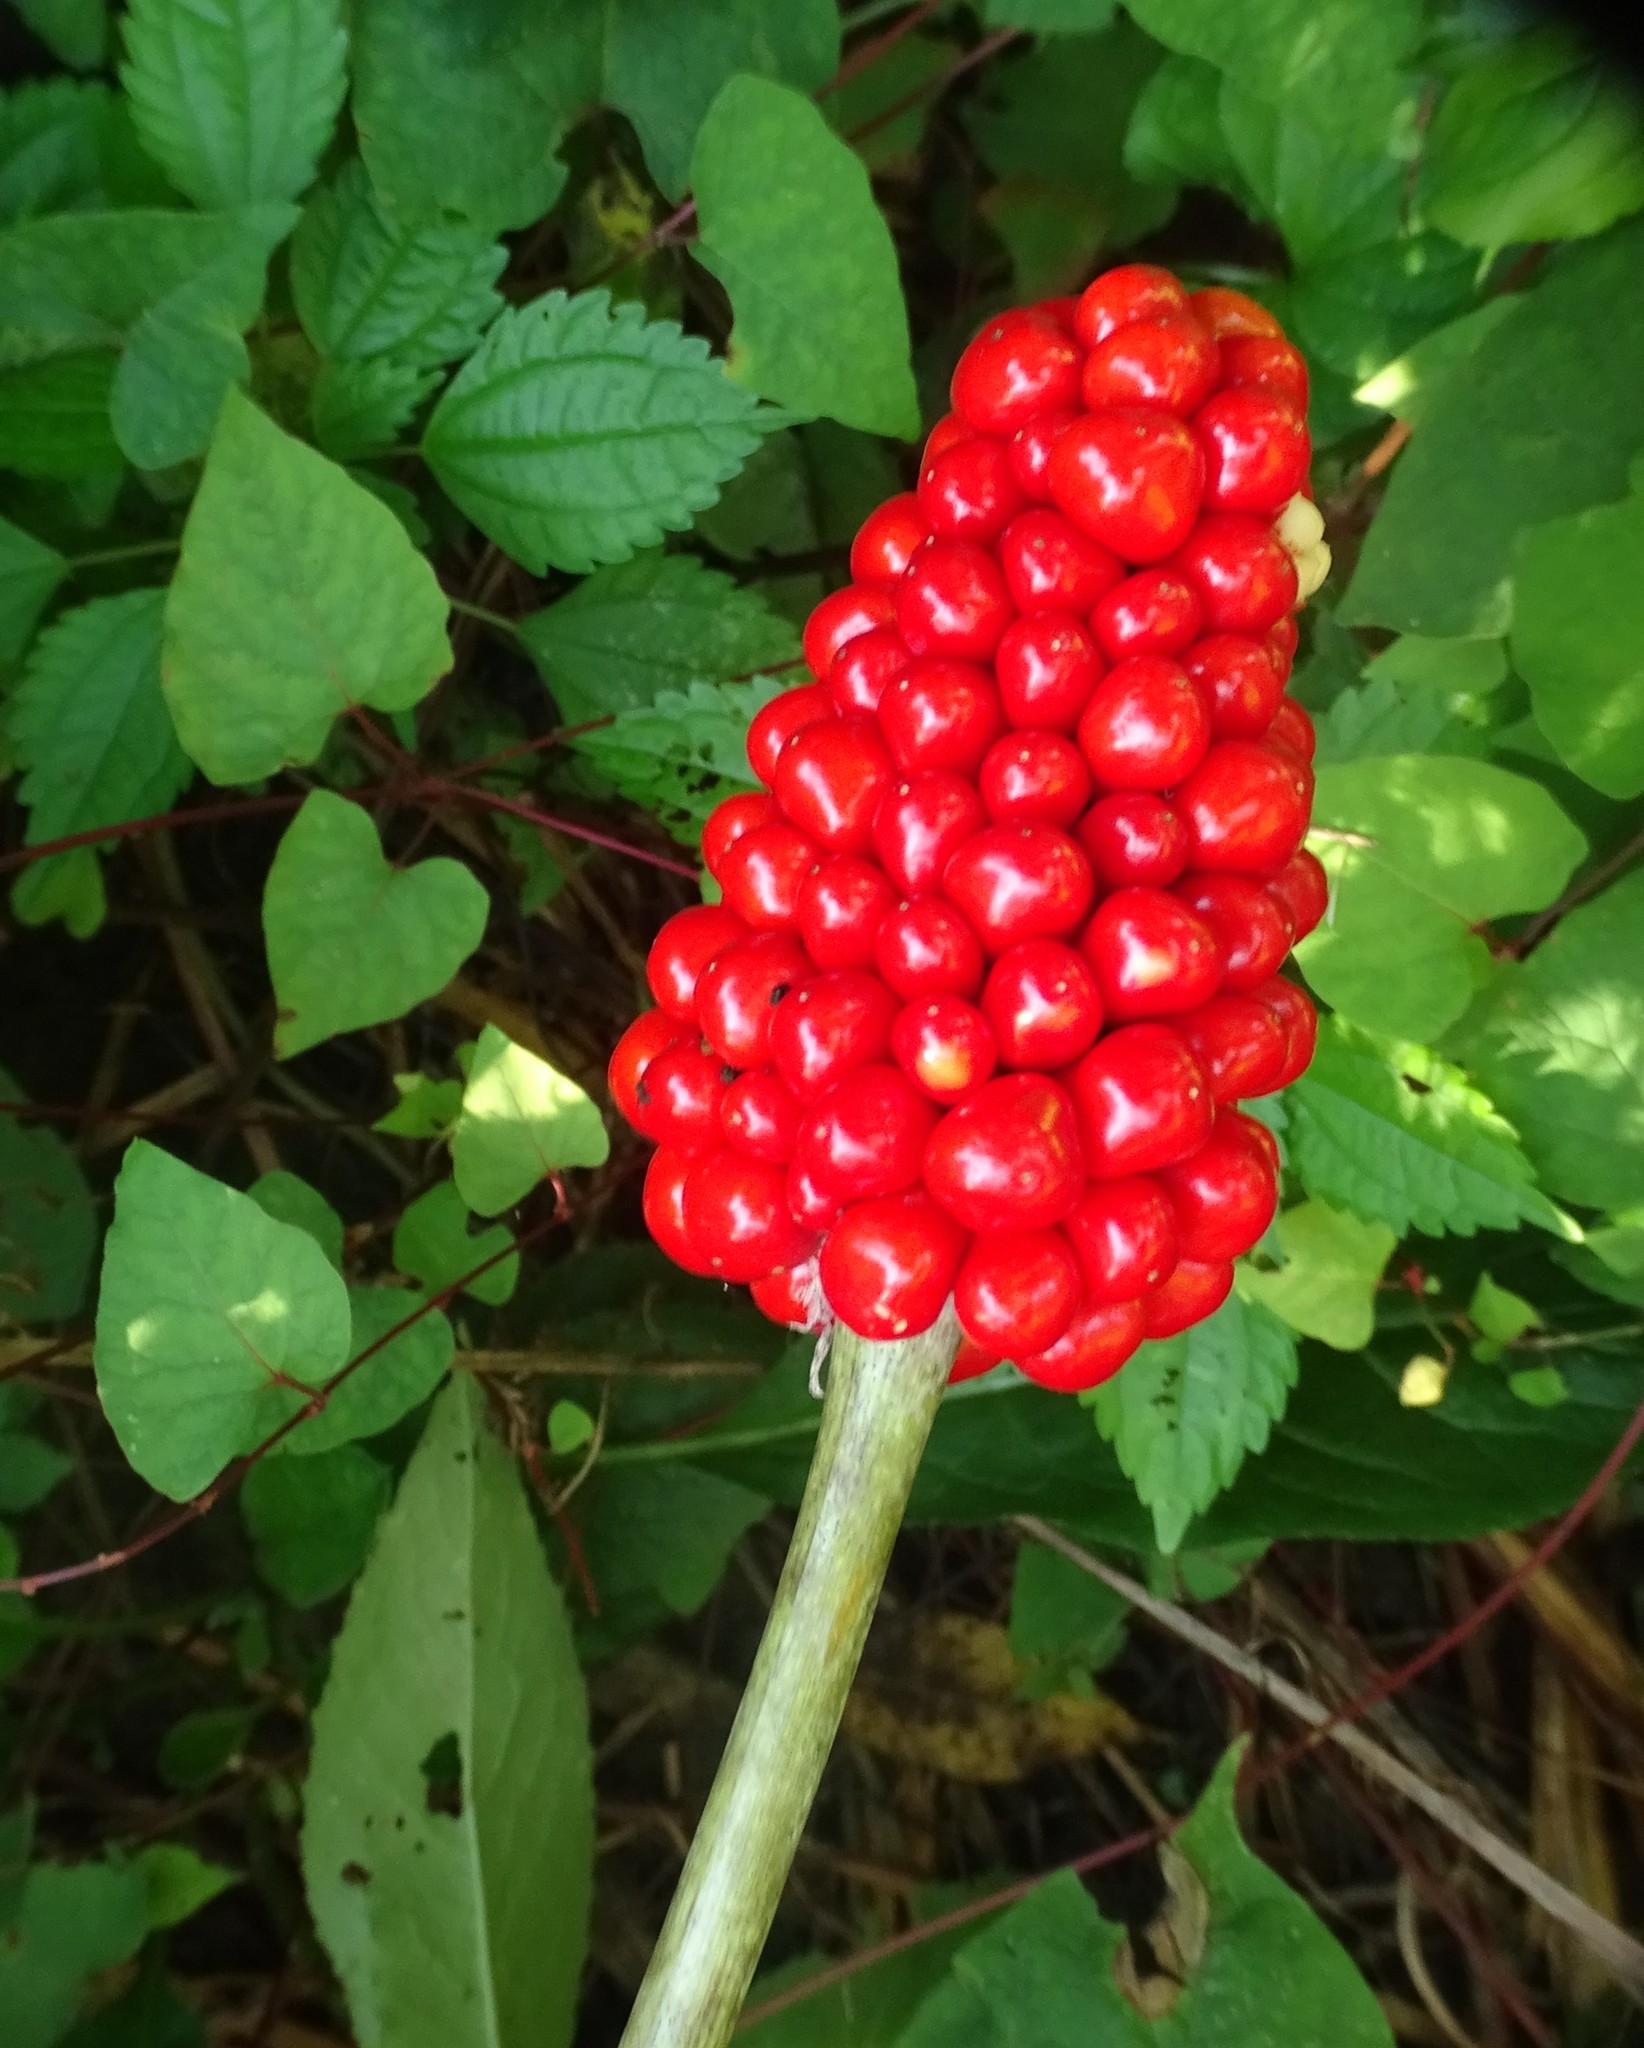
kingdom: Plantae
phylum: Tracheophyta
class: Liliopsida
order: Alismatales
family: Araceae
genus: Arisaema
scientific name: Arisaema triphyllum
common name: Jack-in-the-pulpit
